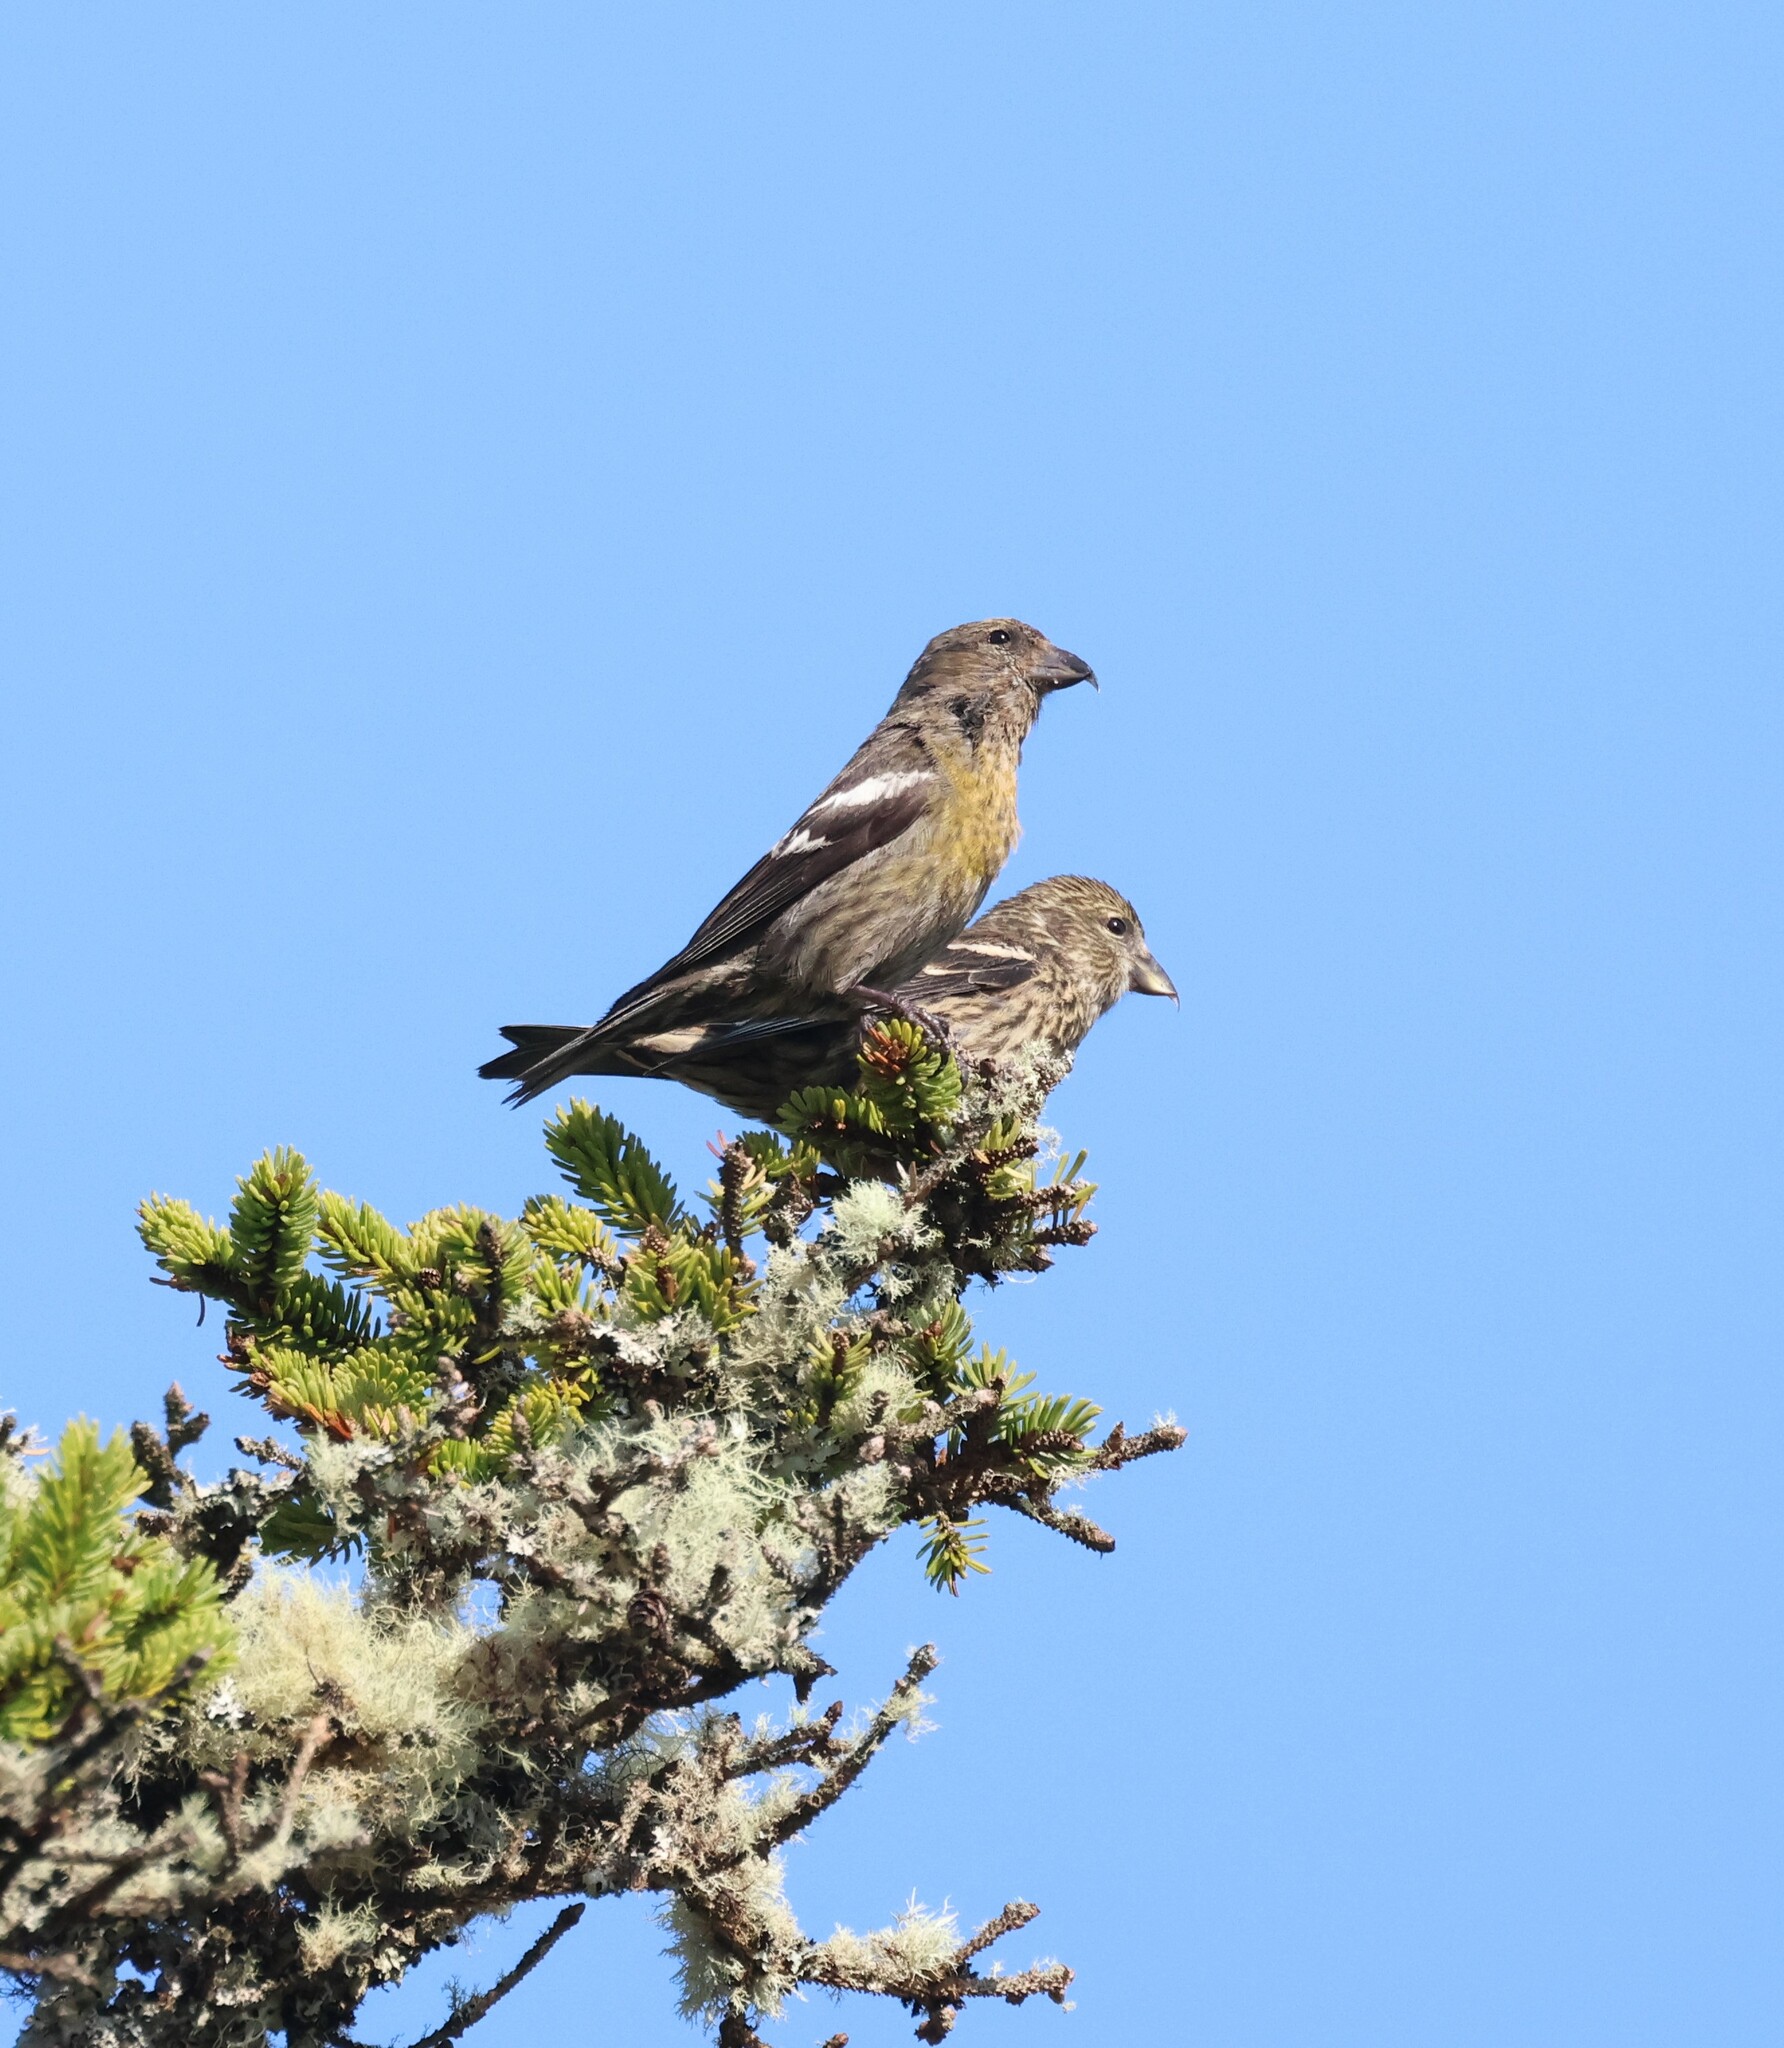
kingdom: Animalia
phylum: Chordata
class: Aves
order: Passeriformes
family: Fringillidae
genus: Loxia
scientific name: Loxia leucoptera
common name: Two-barred crossbill
